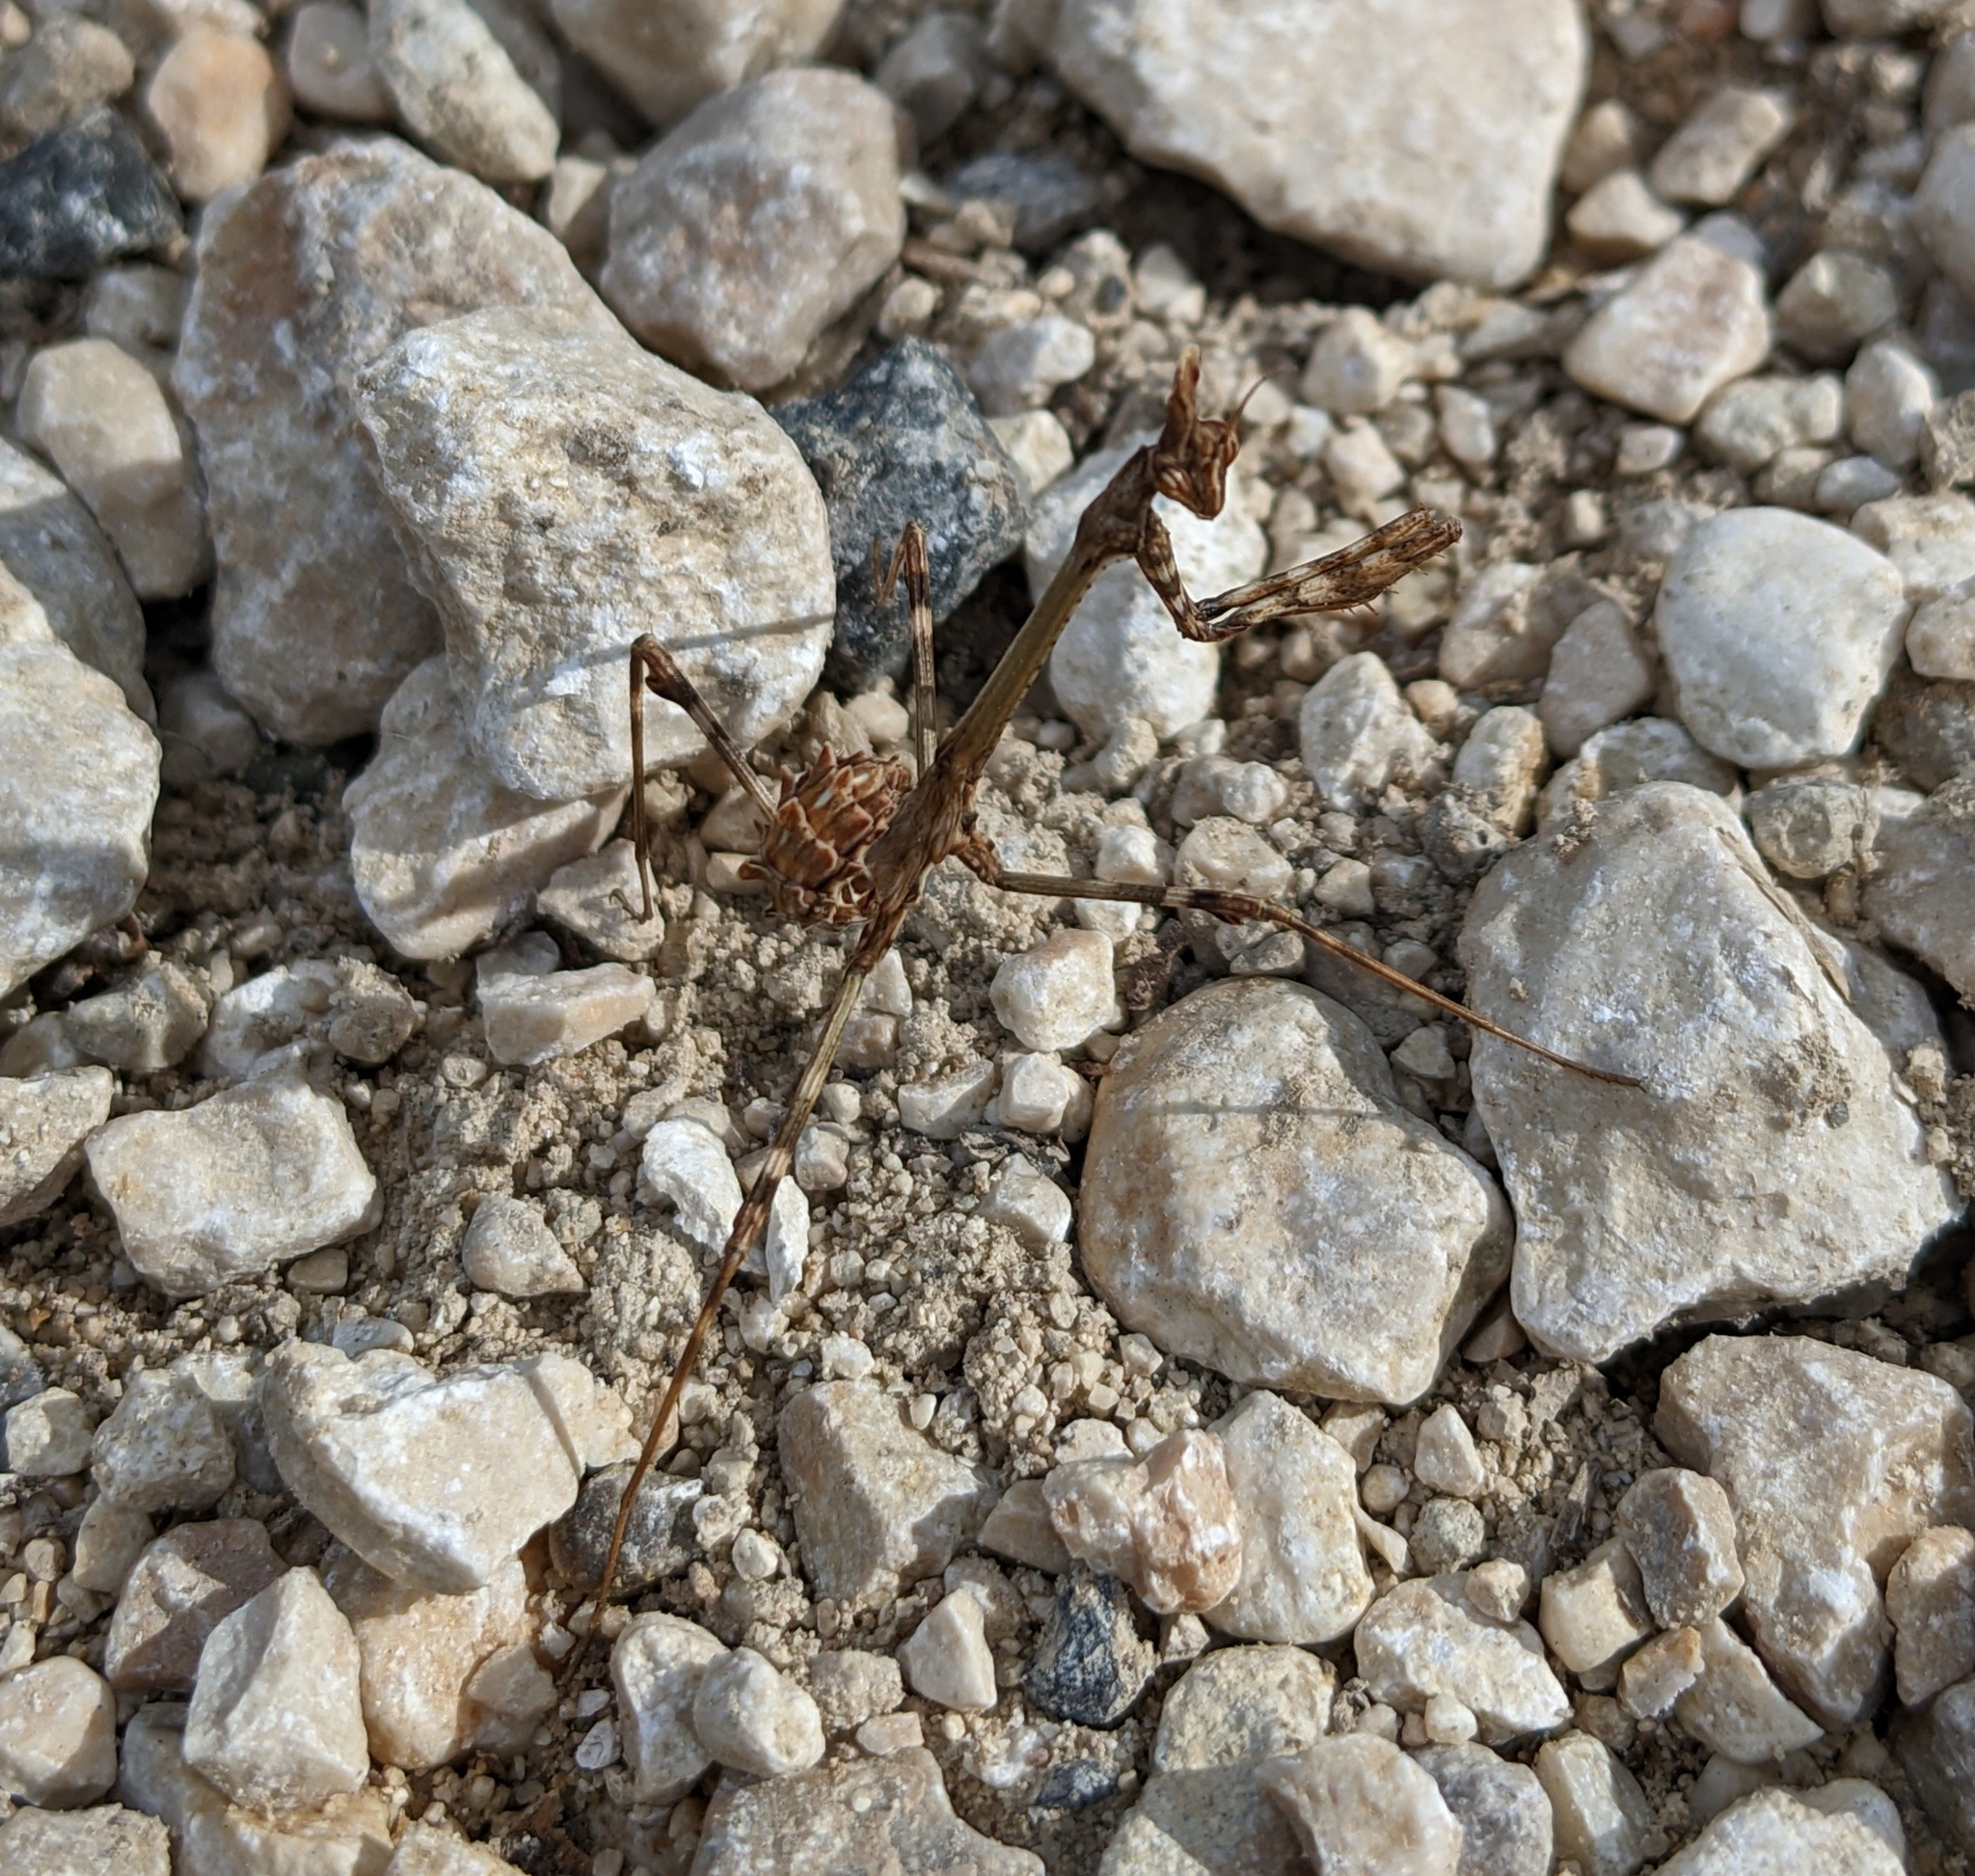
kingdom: Animalia
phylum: Arthropoda
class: Insecta
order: Mantodea
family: Empusidae
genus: Empusa
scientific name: Empusa pennata
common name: Conehead mantis
